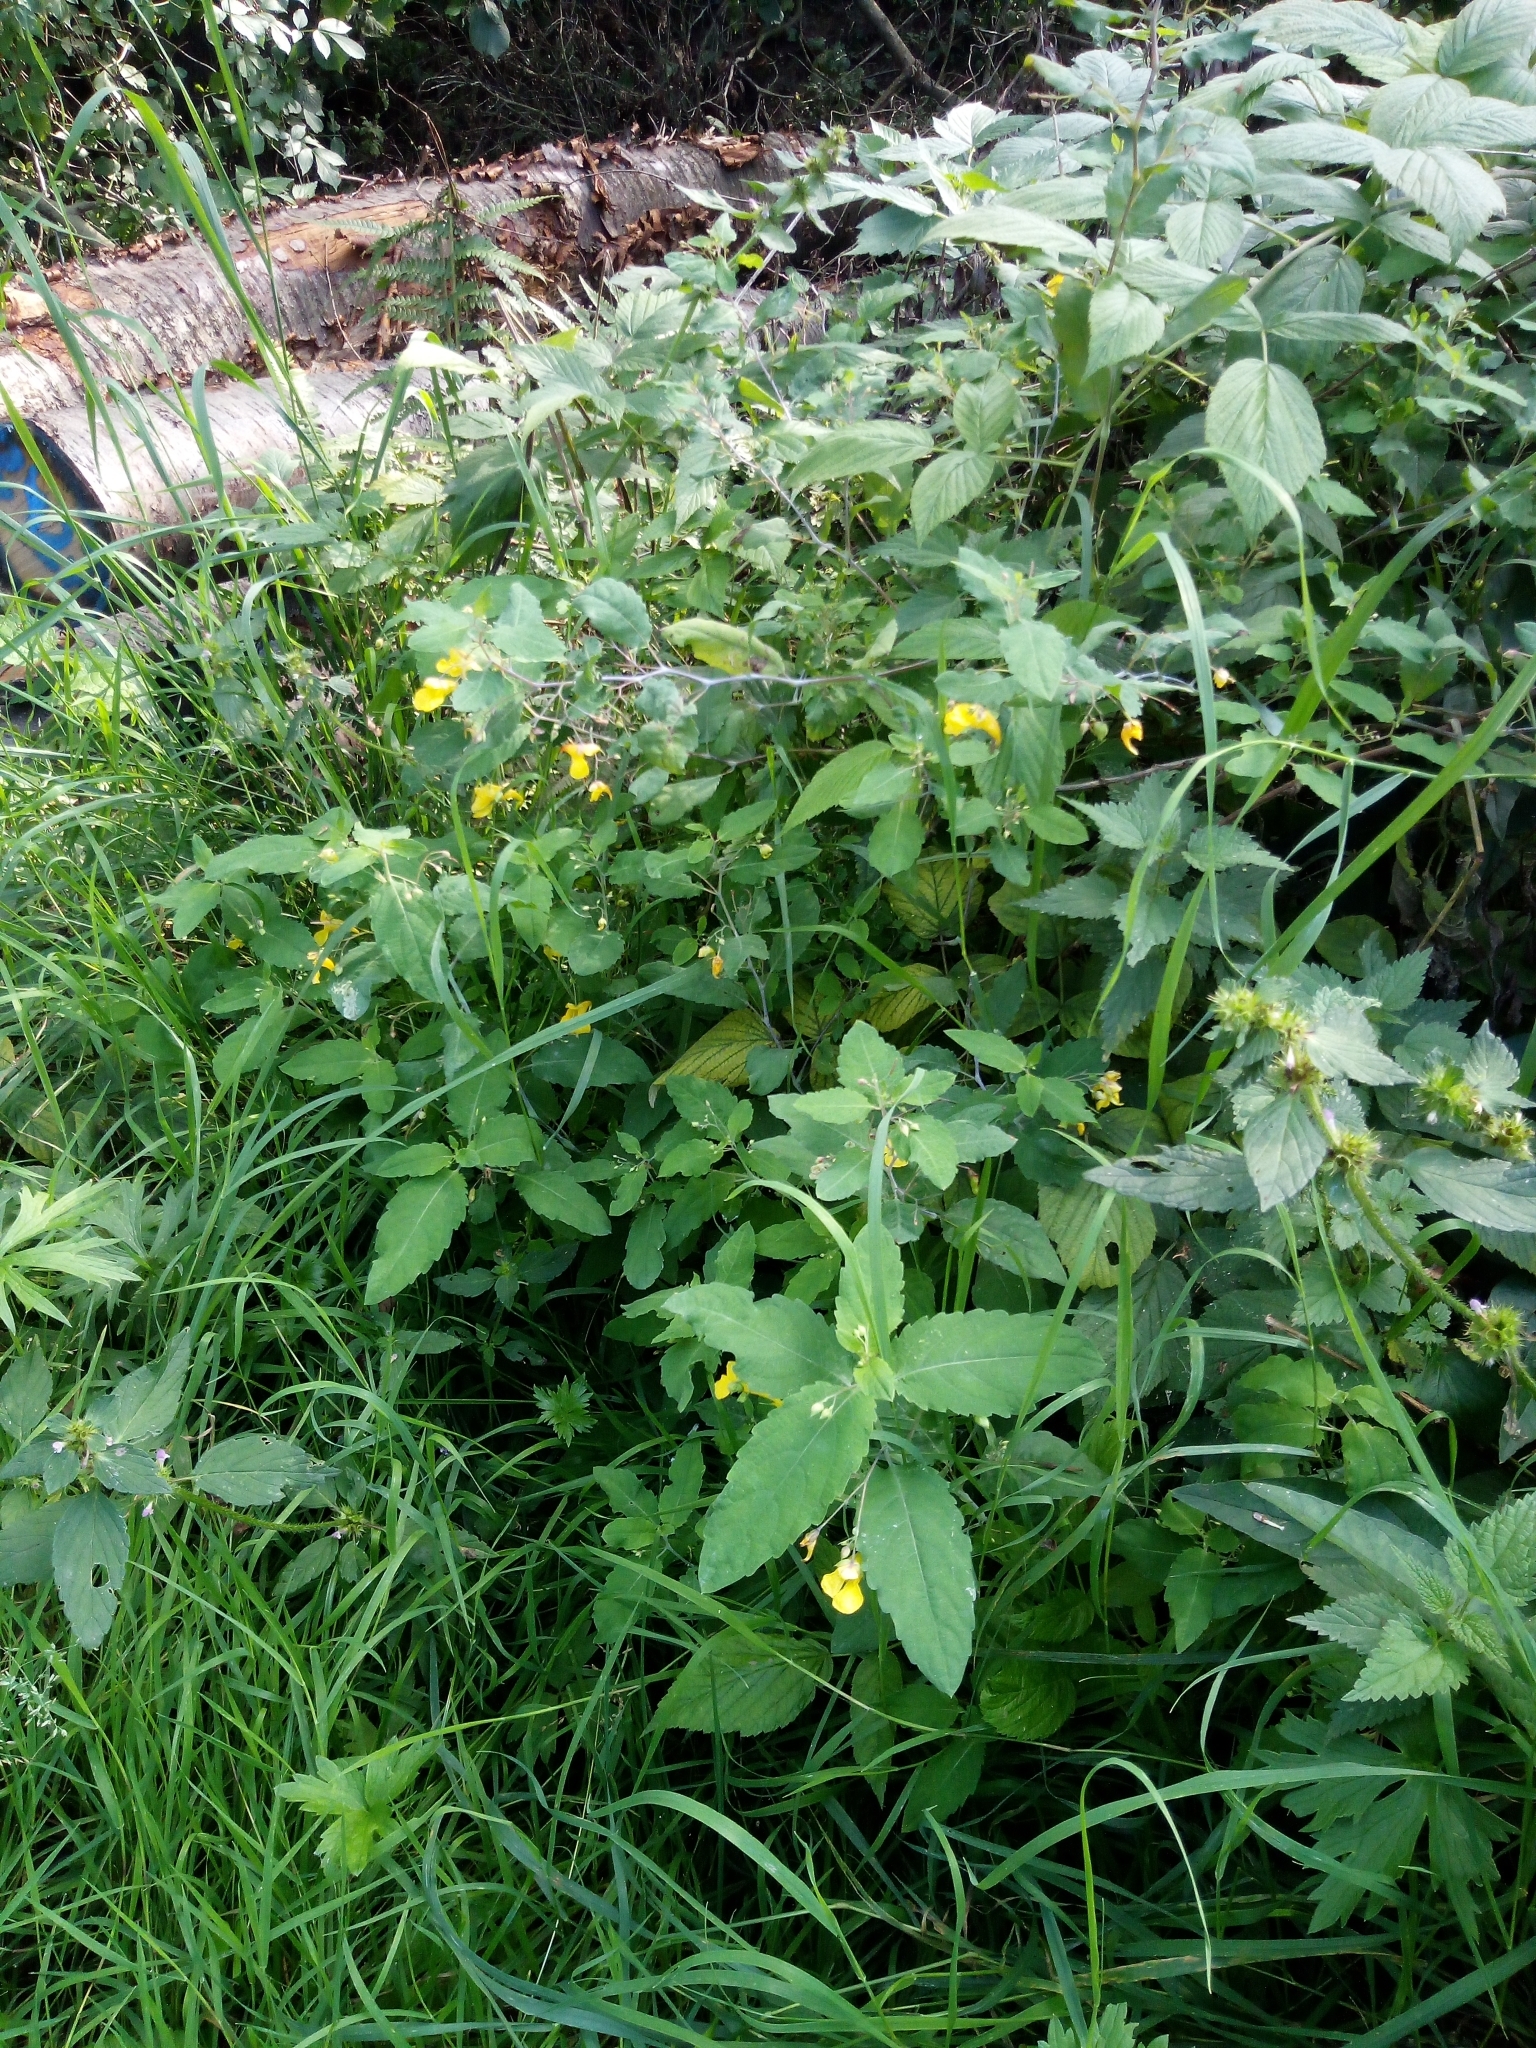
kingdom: Plantae
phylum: Tracheophyta
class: Magnoliopsida
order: Ericales
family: Balsaminaceae
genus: Impatiens
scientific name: Impatiens noli-tangere
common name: Touch-me-not balsam
